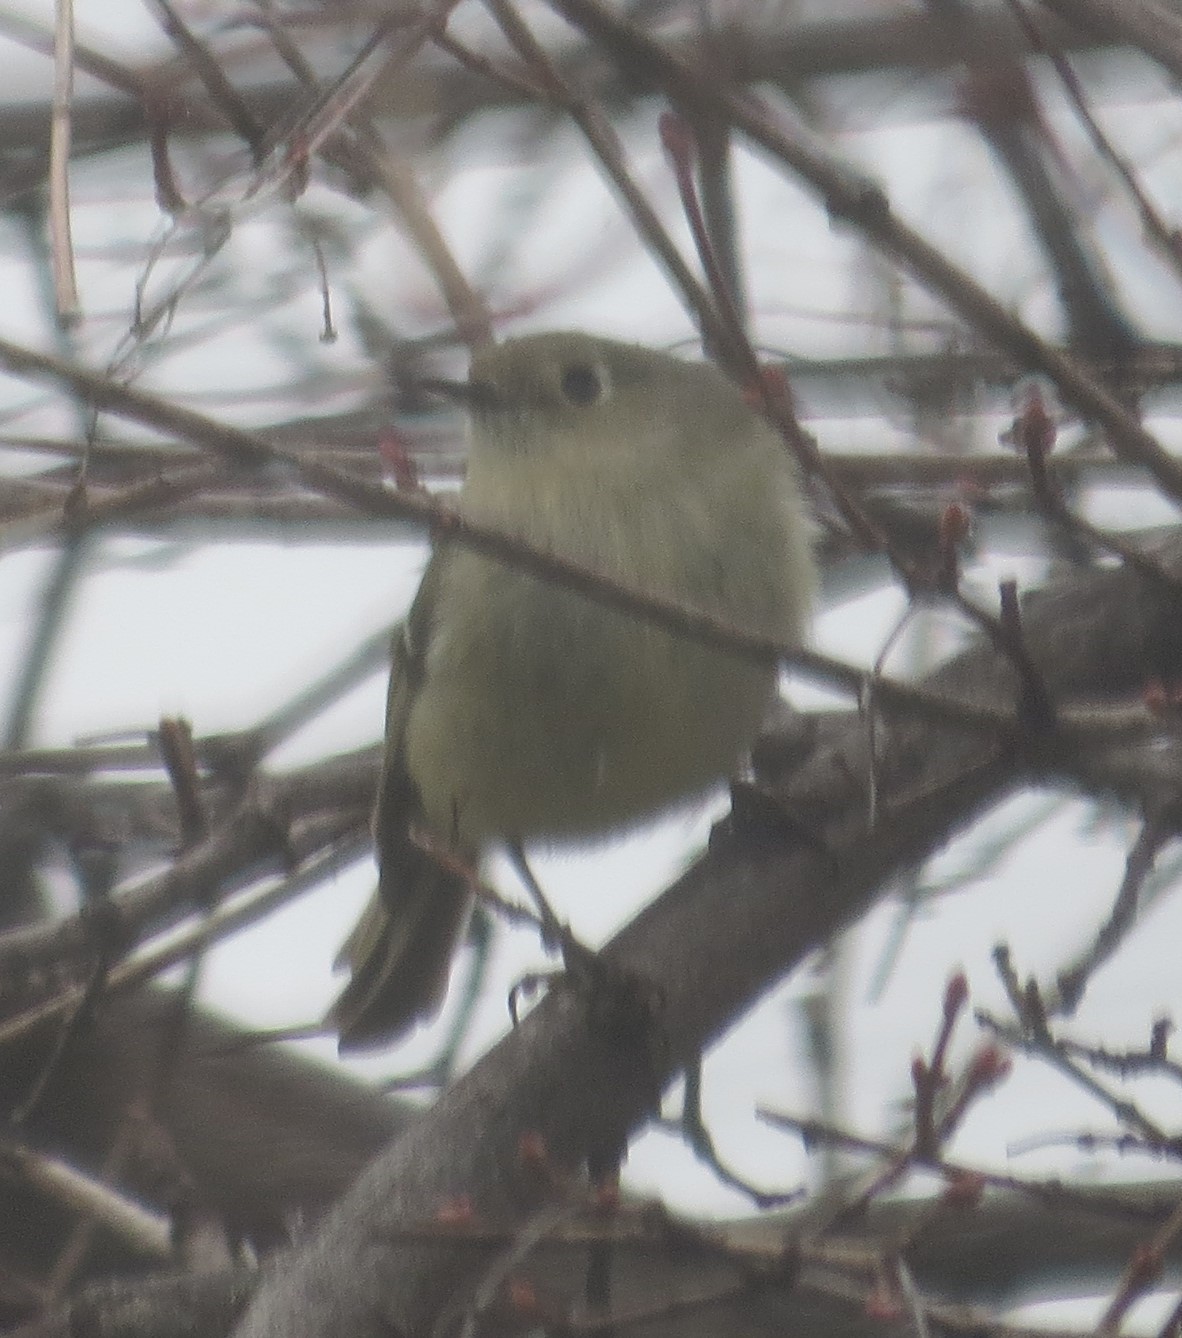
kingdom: Animalia
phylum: Chordata
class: Aves
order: Passeriformes
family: Regulidae
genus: Regulus
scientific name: Regulus calendula
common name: Ruby-crowned kinglet
